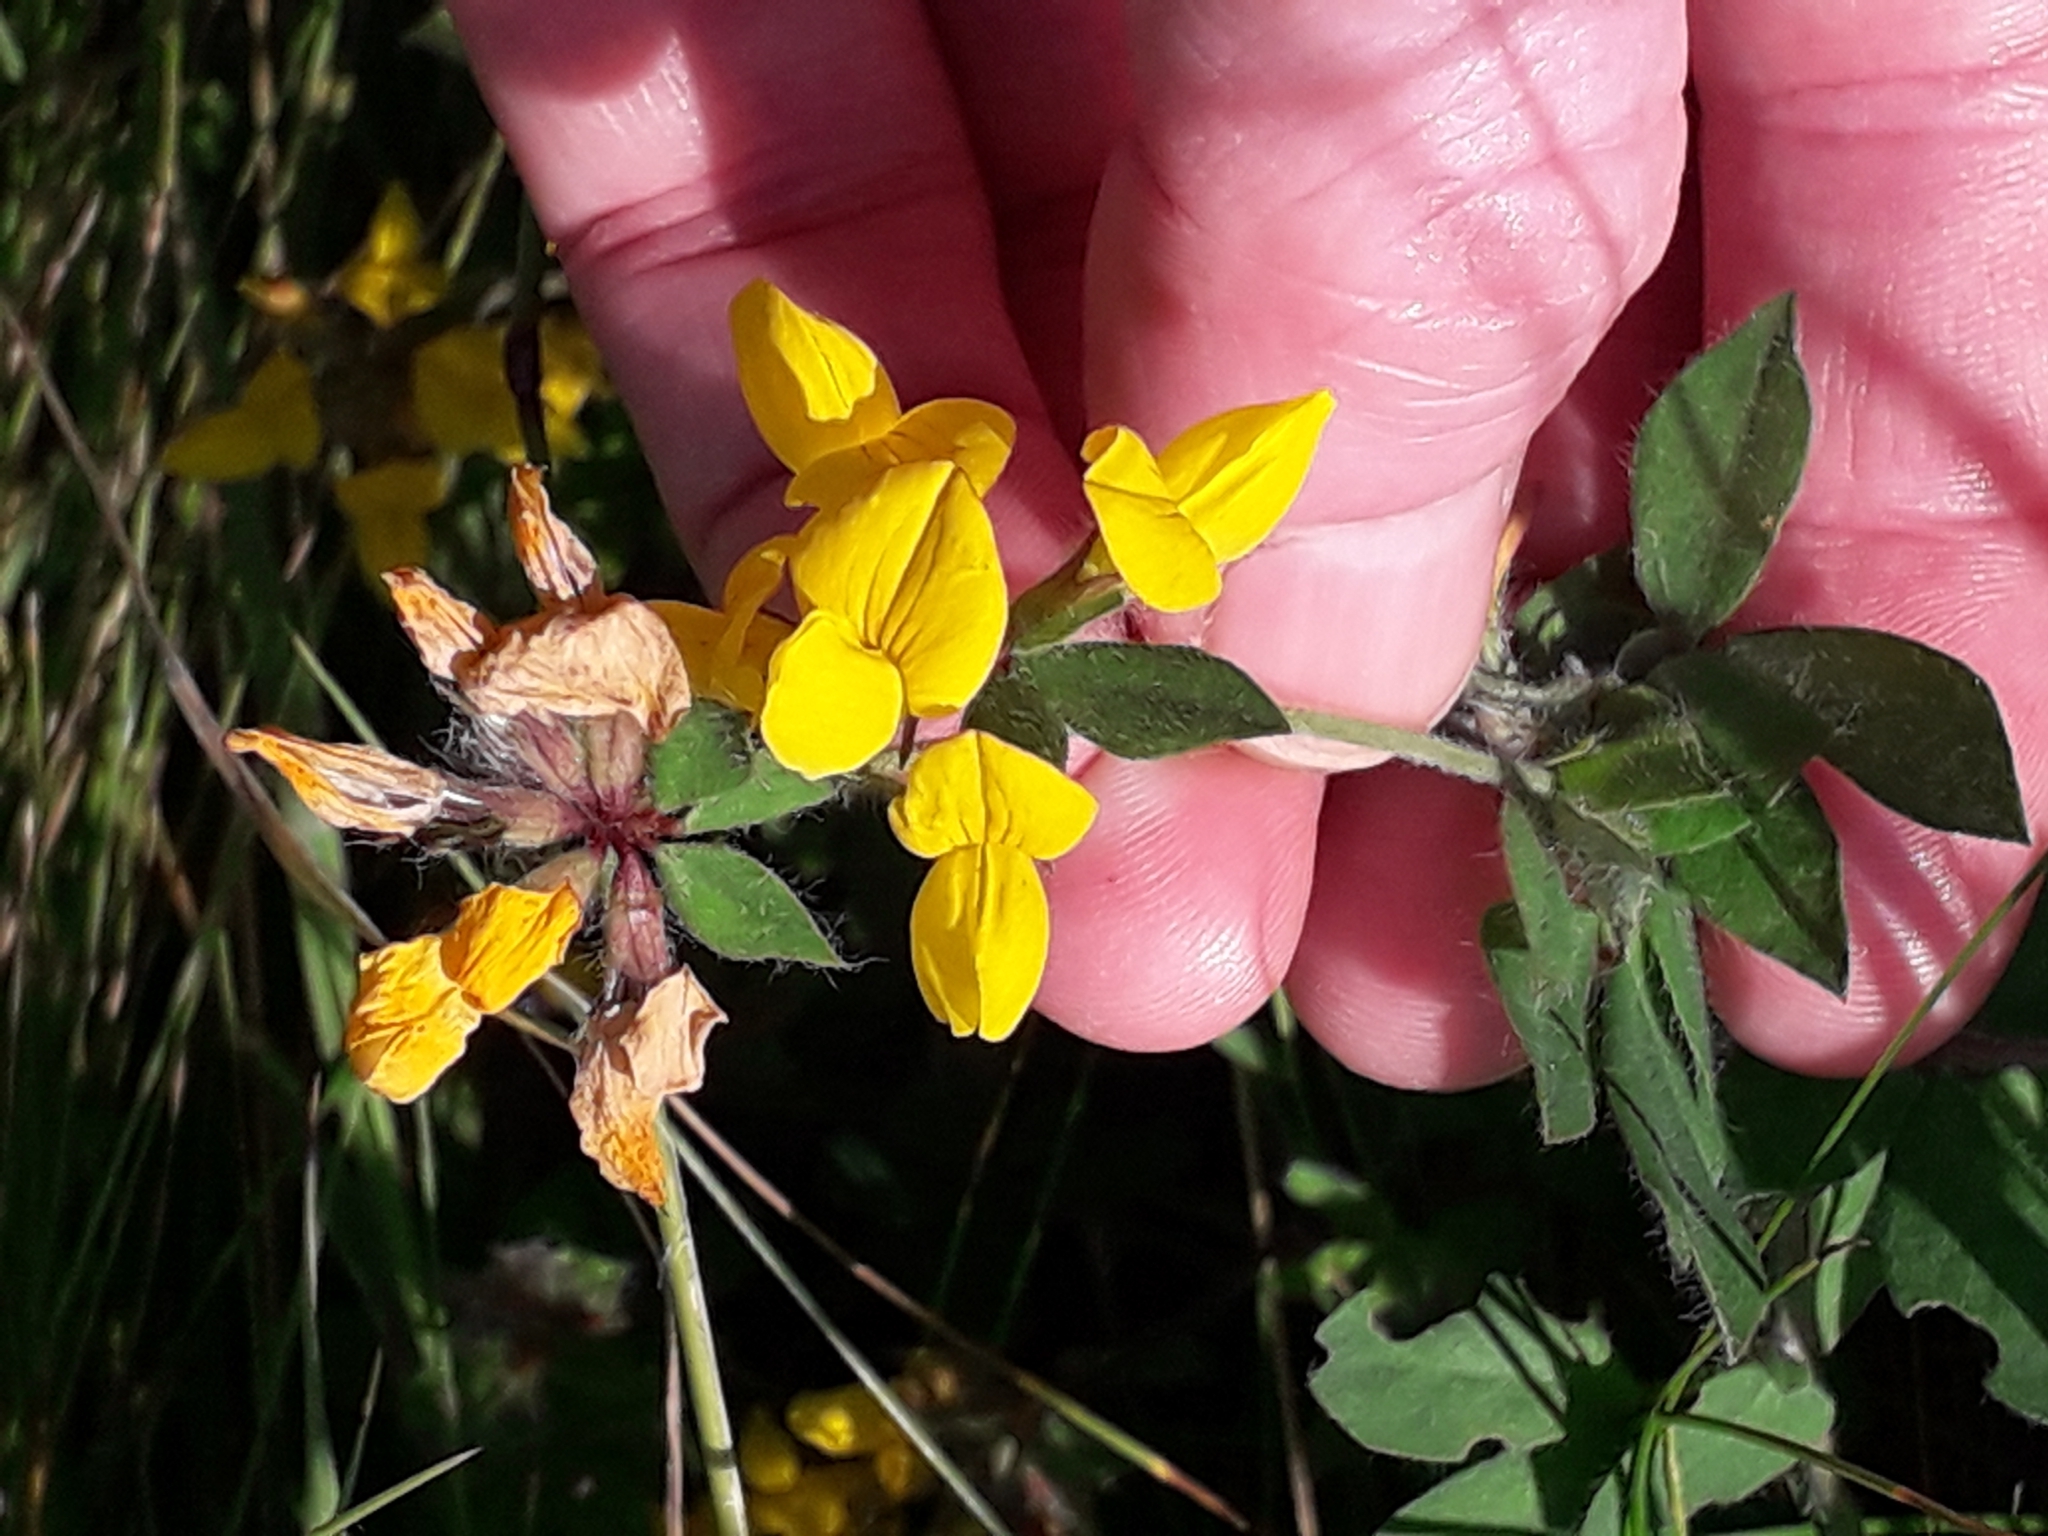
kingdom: Plantae
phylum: Tracheophyta
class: Magnoliopsida
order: Fabales
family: Fabaceae
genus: Lotus
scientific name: Lotus corniculatus
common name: Common bird's-foot-trefoil
